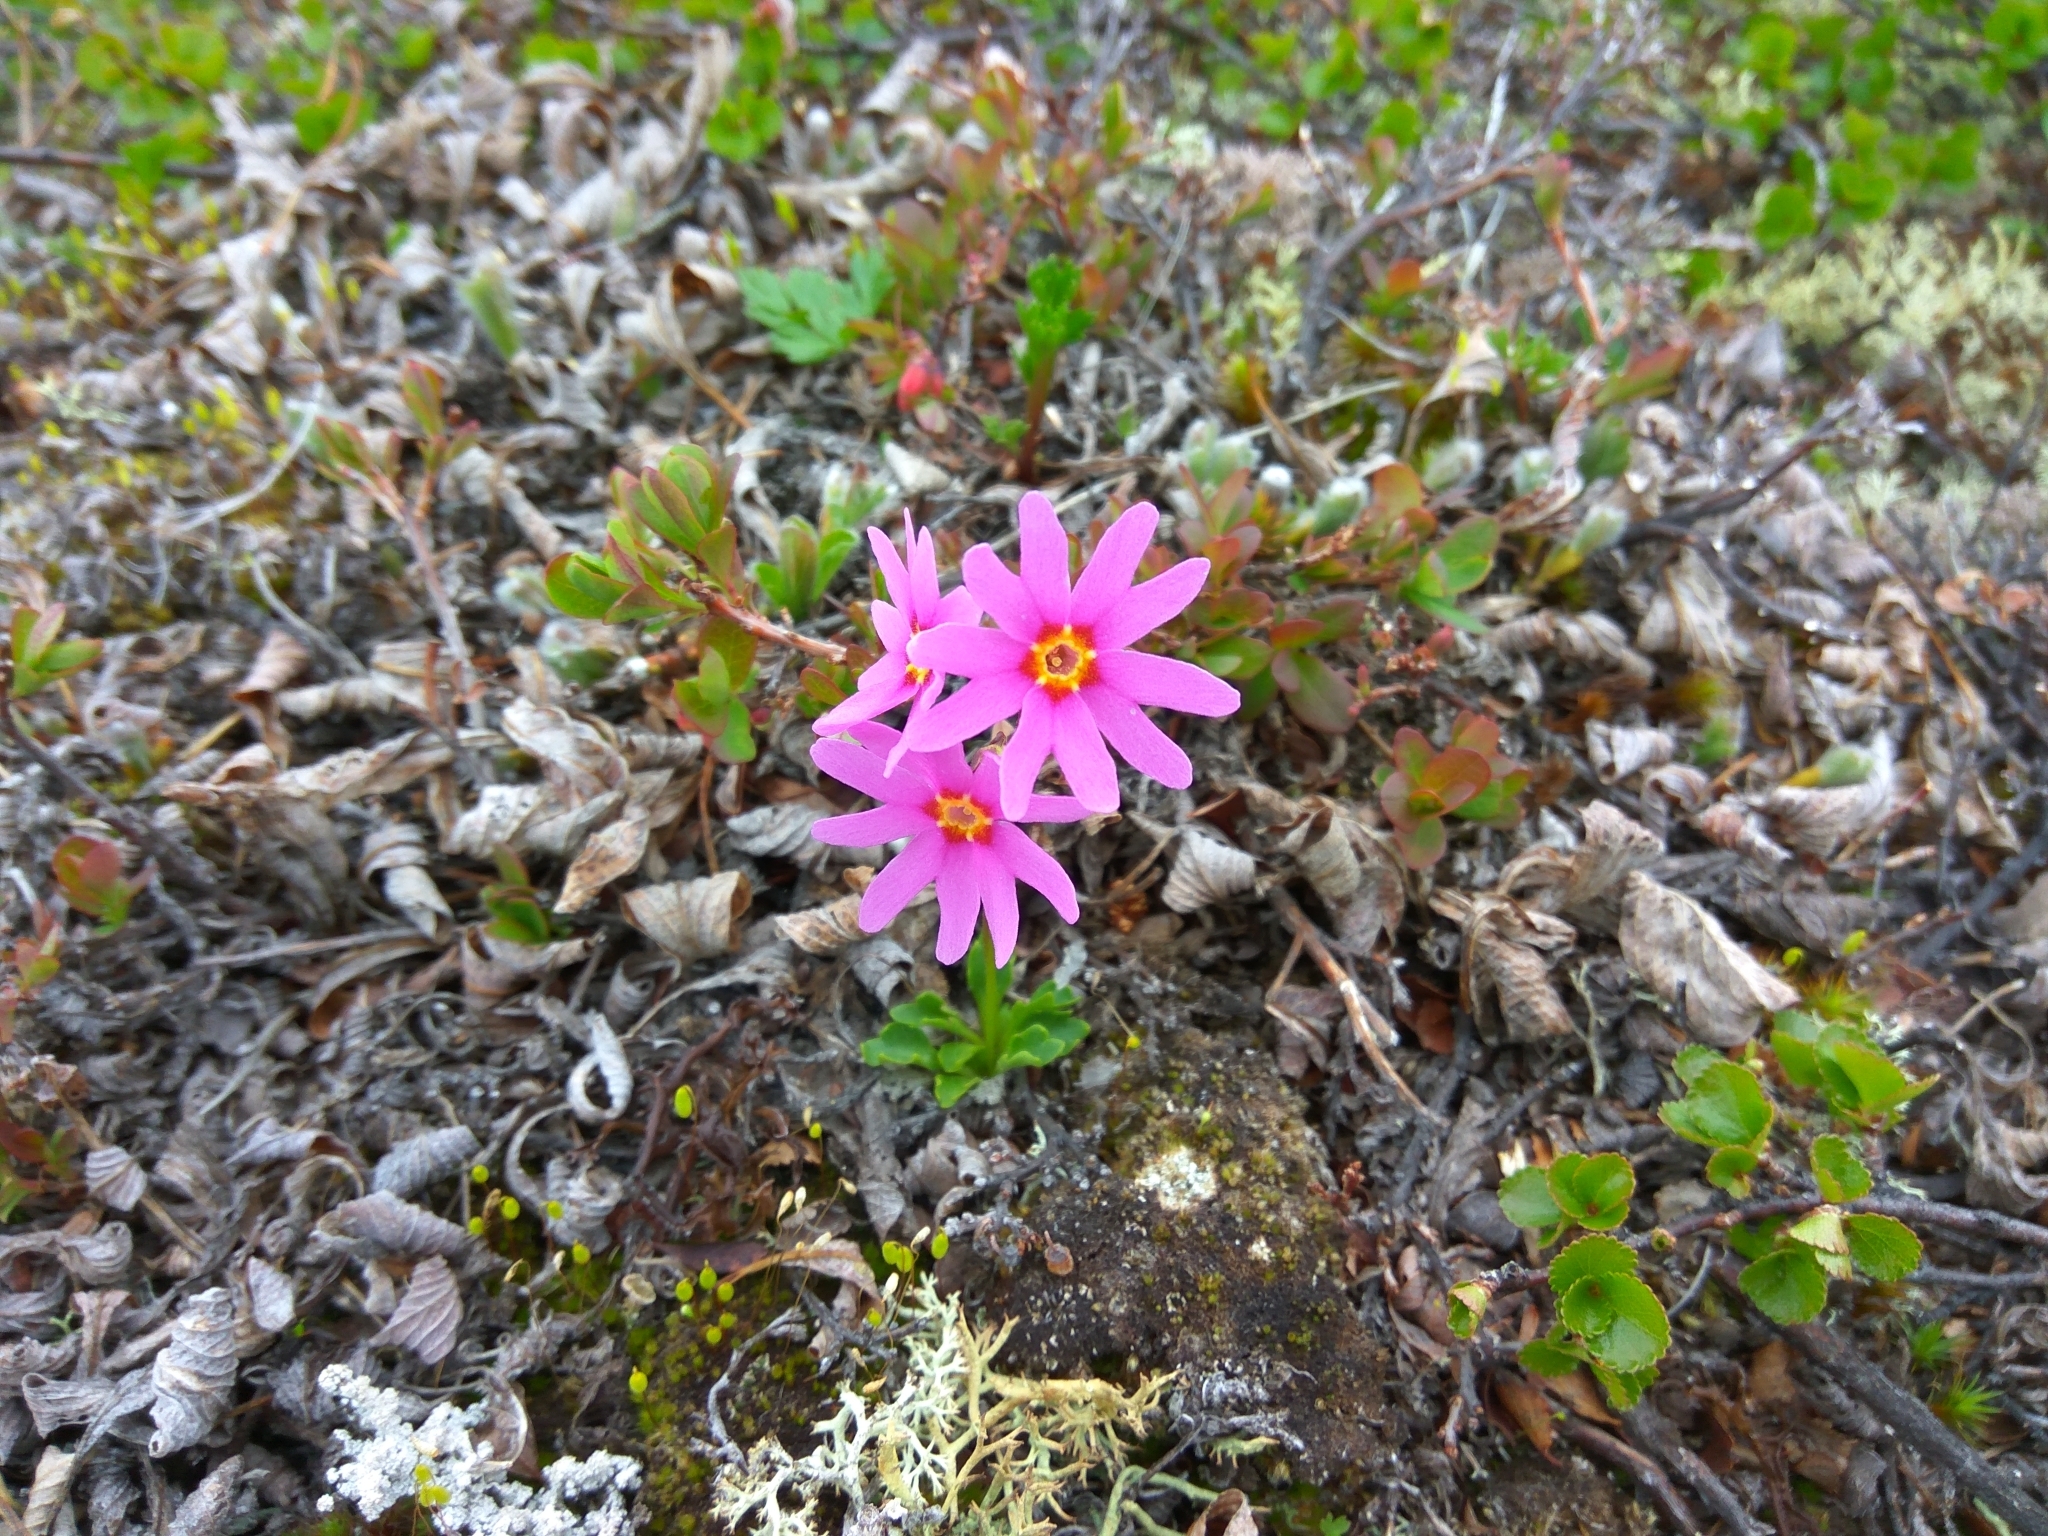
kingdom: Plantae
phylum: Tracheophyta
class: Magnoliopsida
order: Ericales
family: Primulaceae
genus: Primula
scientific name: Primula cuneifolia
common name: Wedge-leaved primrose
